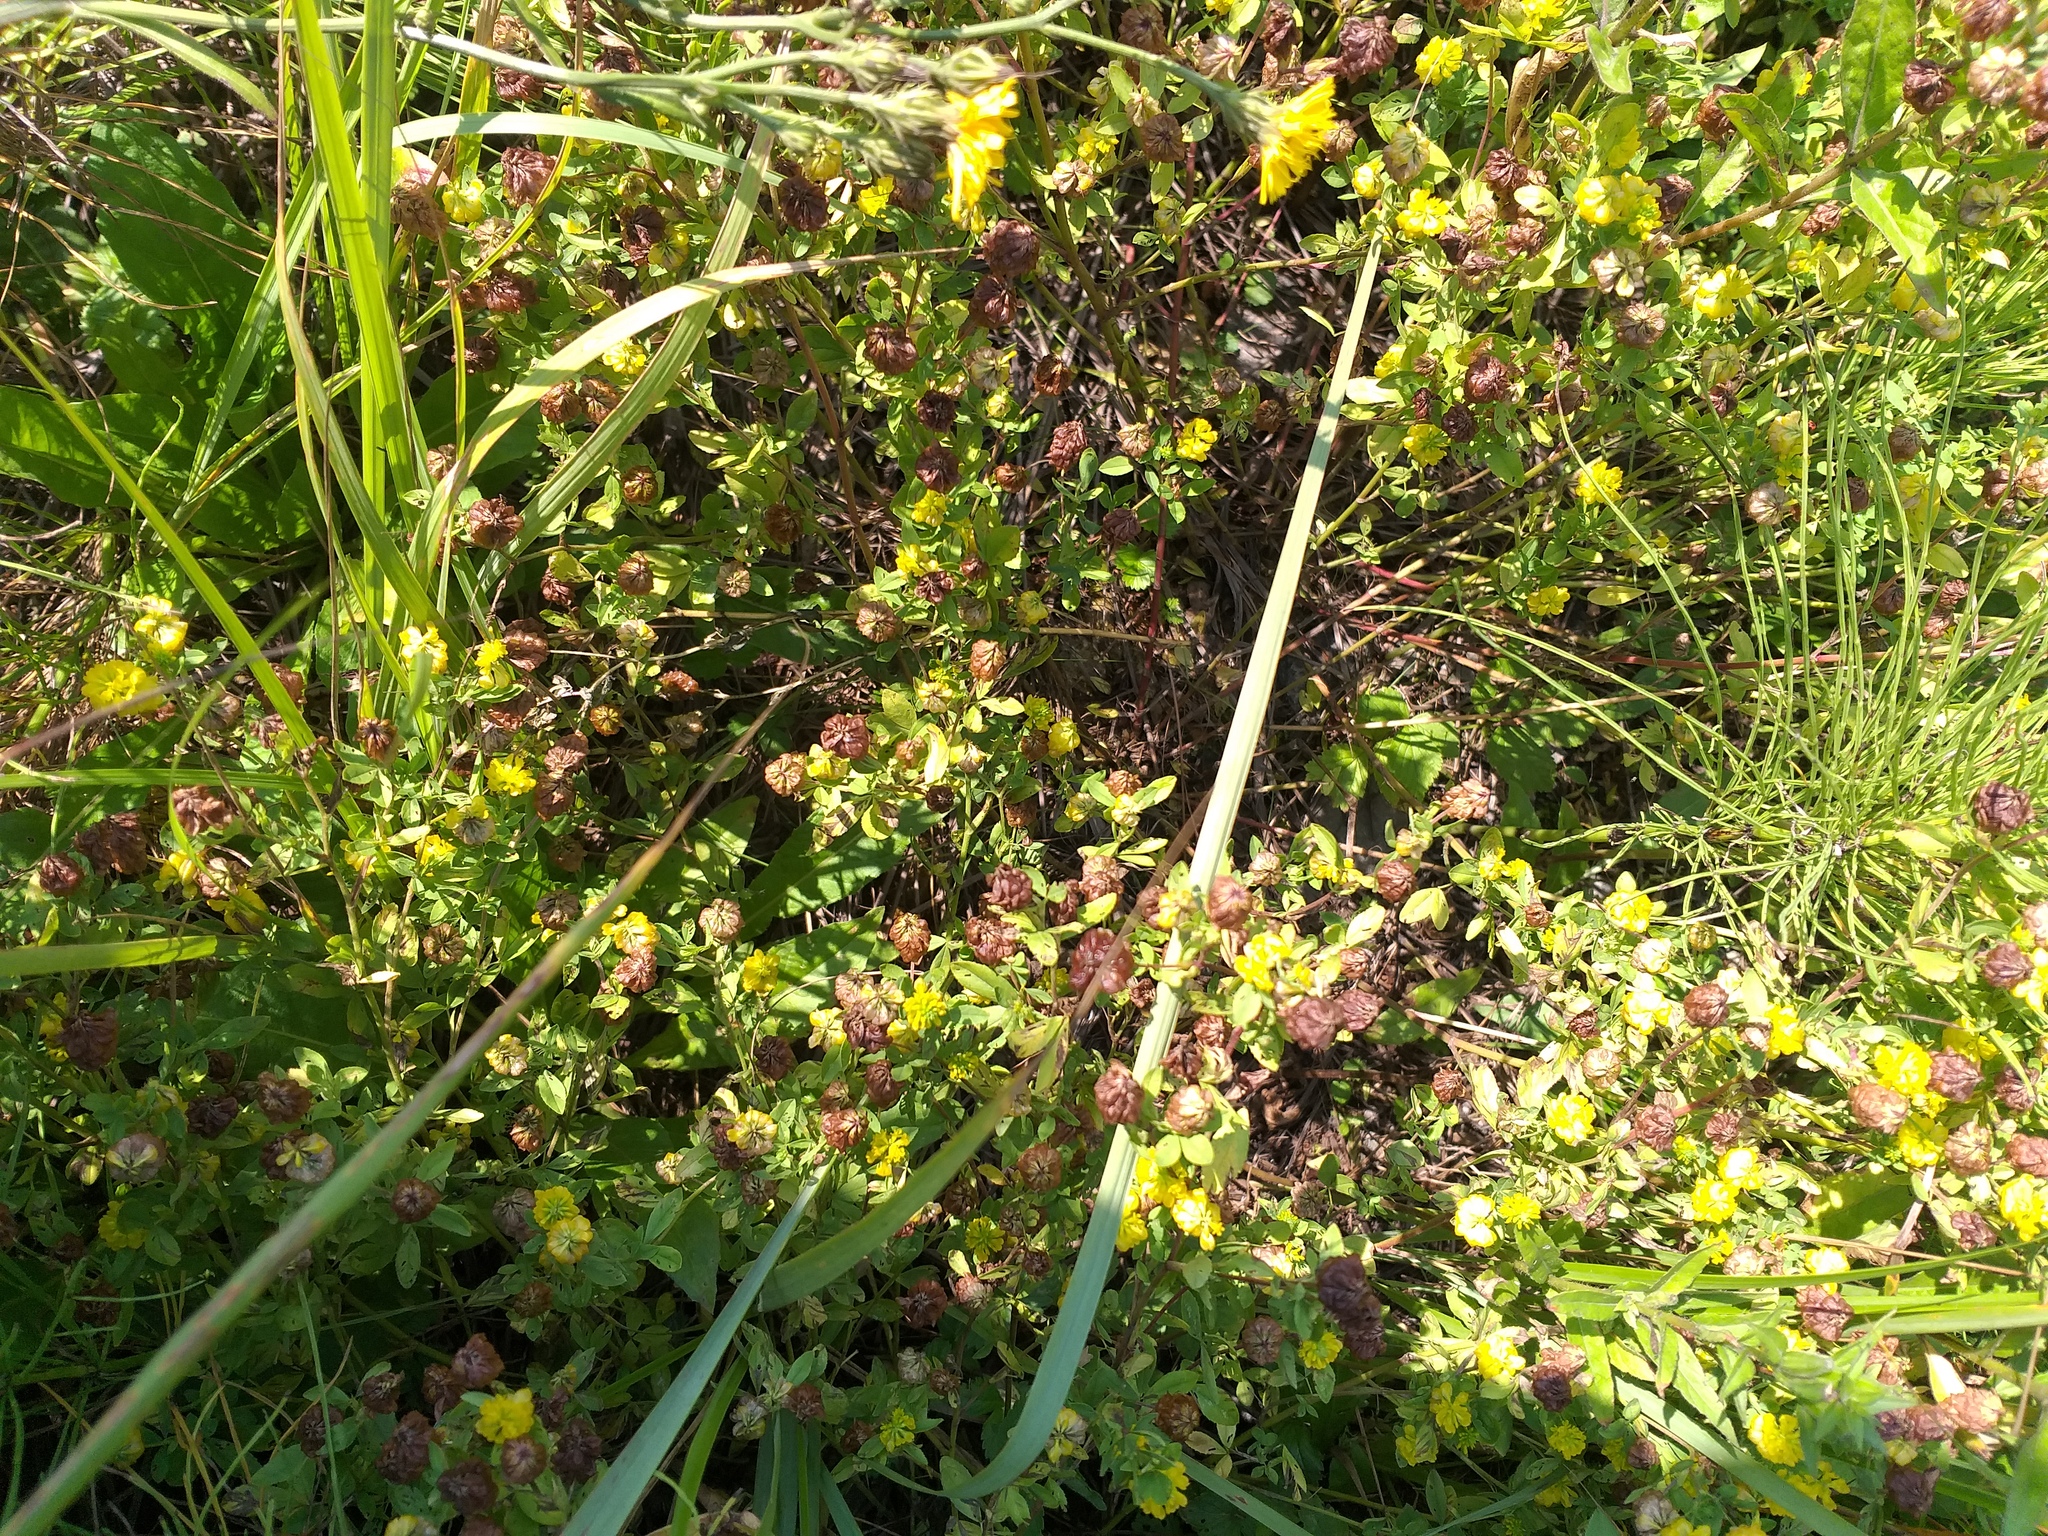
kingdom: Plantae
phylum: Tracheophyta
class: Magnoliopsida
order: Fabales
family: Fabaceae
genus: Trifolium
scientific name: Trifolium aureum
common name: Golden clover
